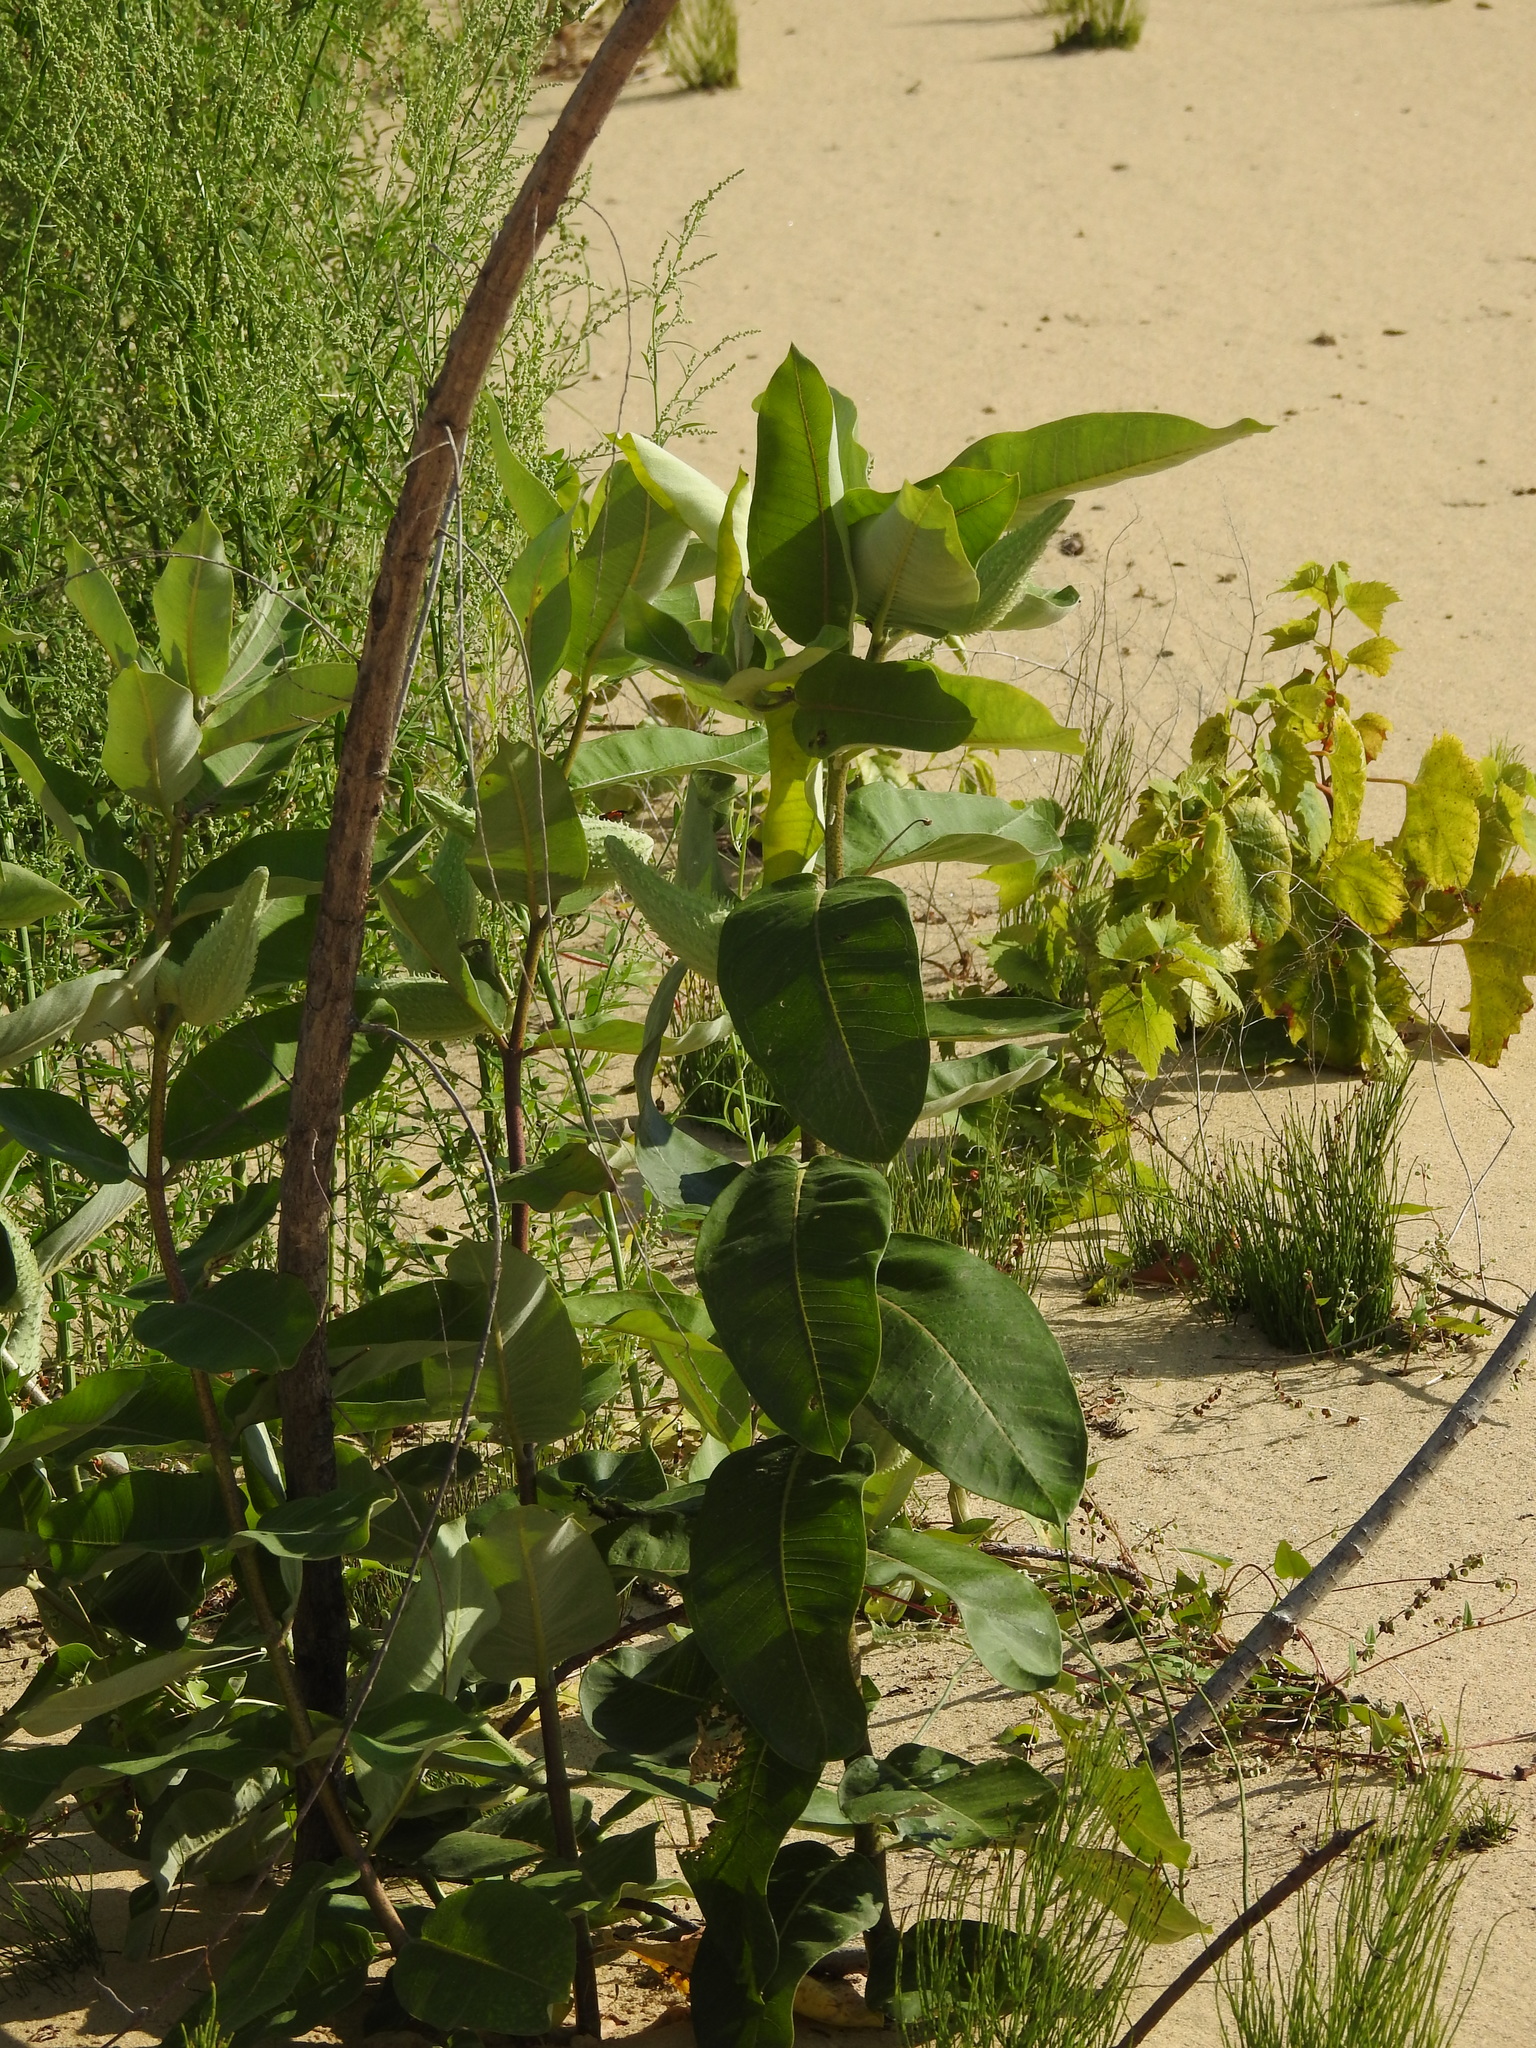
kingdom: Plantae
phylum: Tracheophyta
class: Magnoliopsida
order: Gentianales
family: Apocynaceae
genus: Asclepias
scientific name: Asclepias syriaca
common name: Common milkweed
